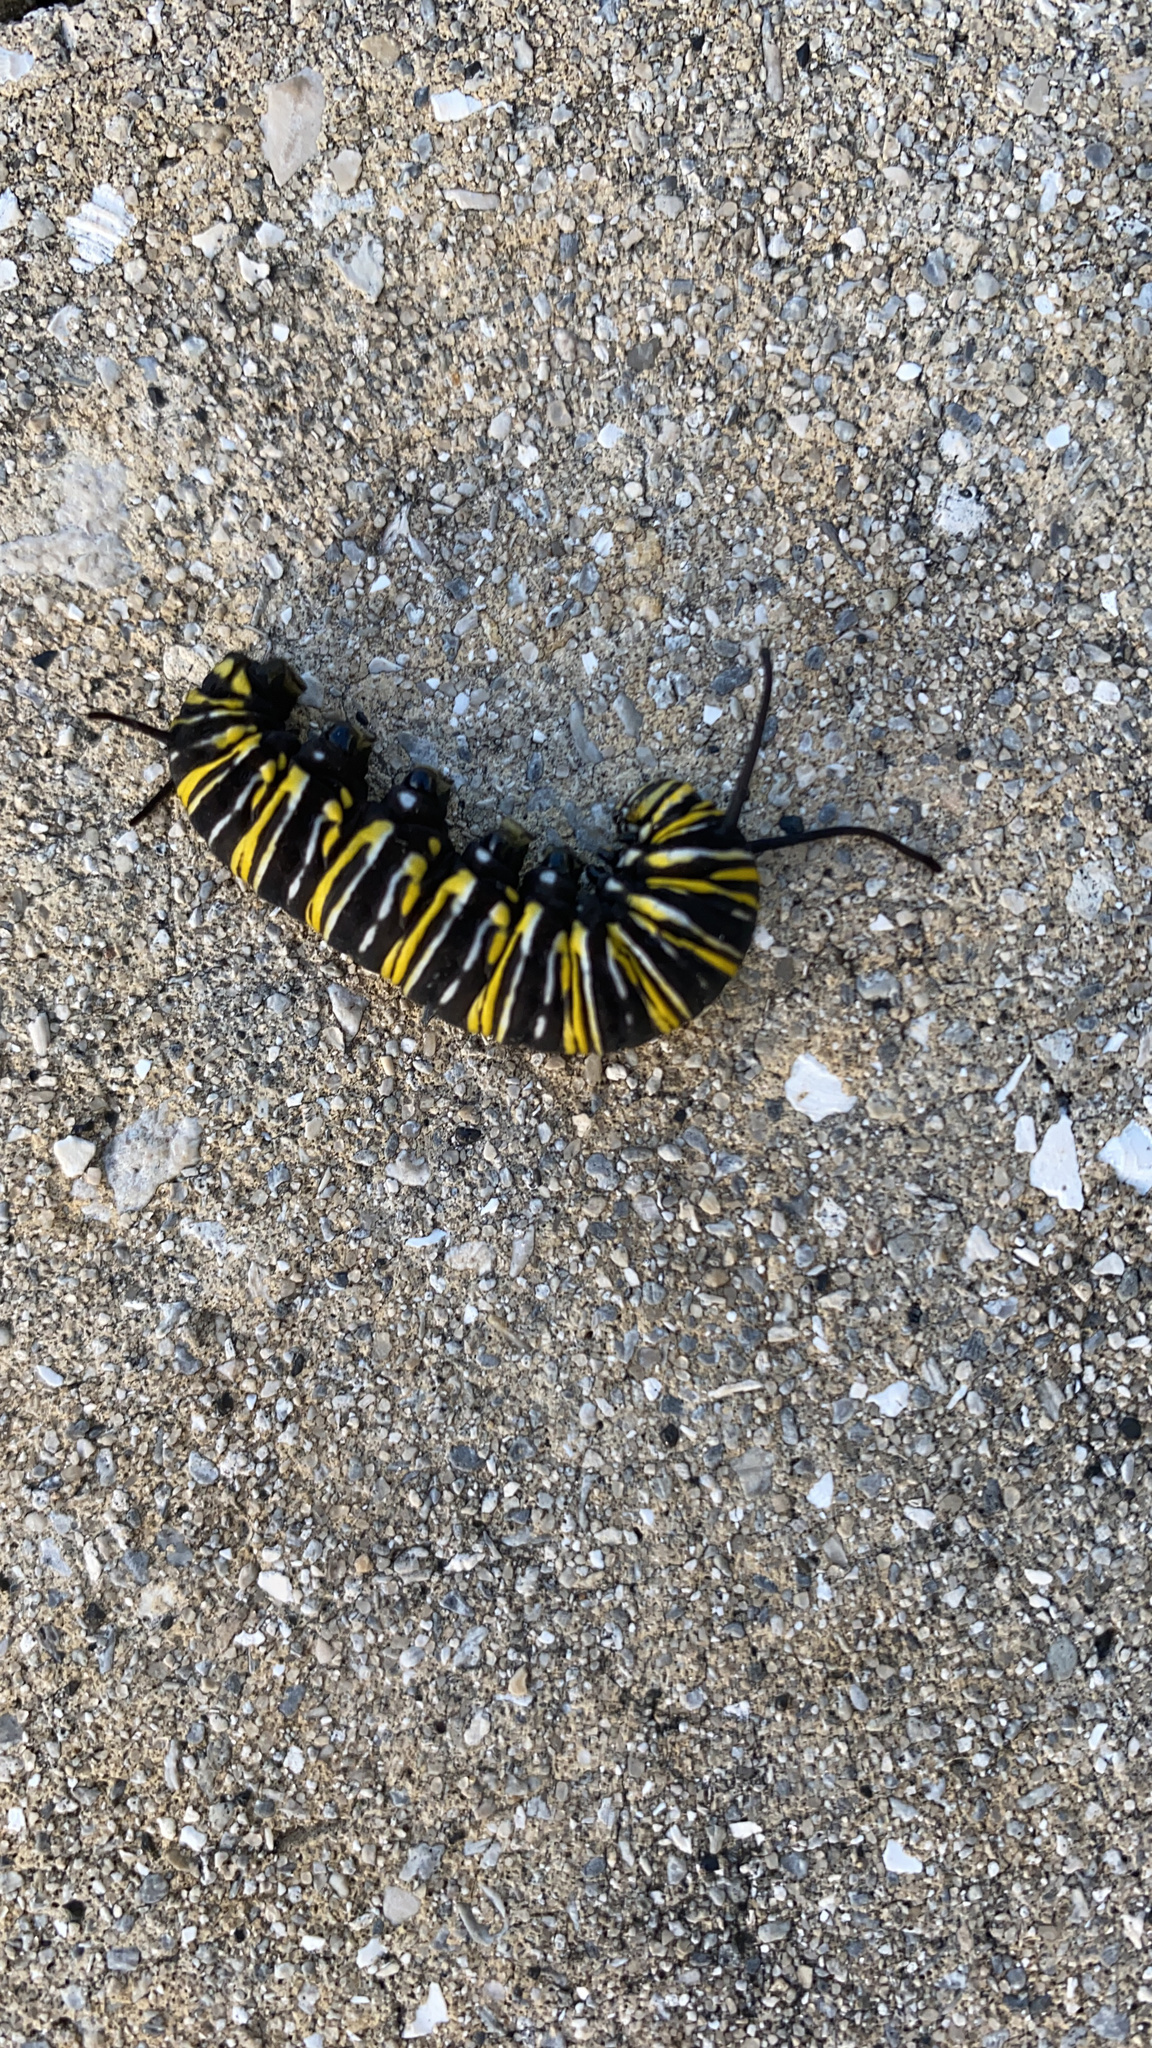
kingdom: Animalia
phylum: Arthropoda
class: Insecta
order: Lepidoptera
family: Nymphalidae
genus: Danaus
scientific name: Danaus plexippus
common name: Monarch
